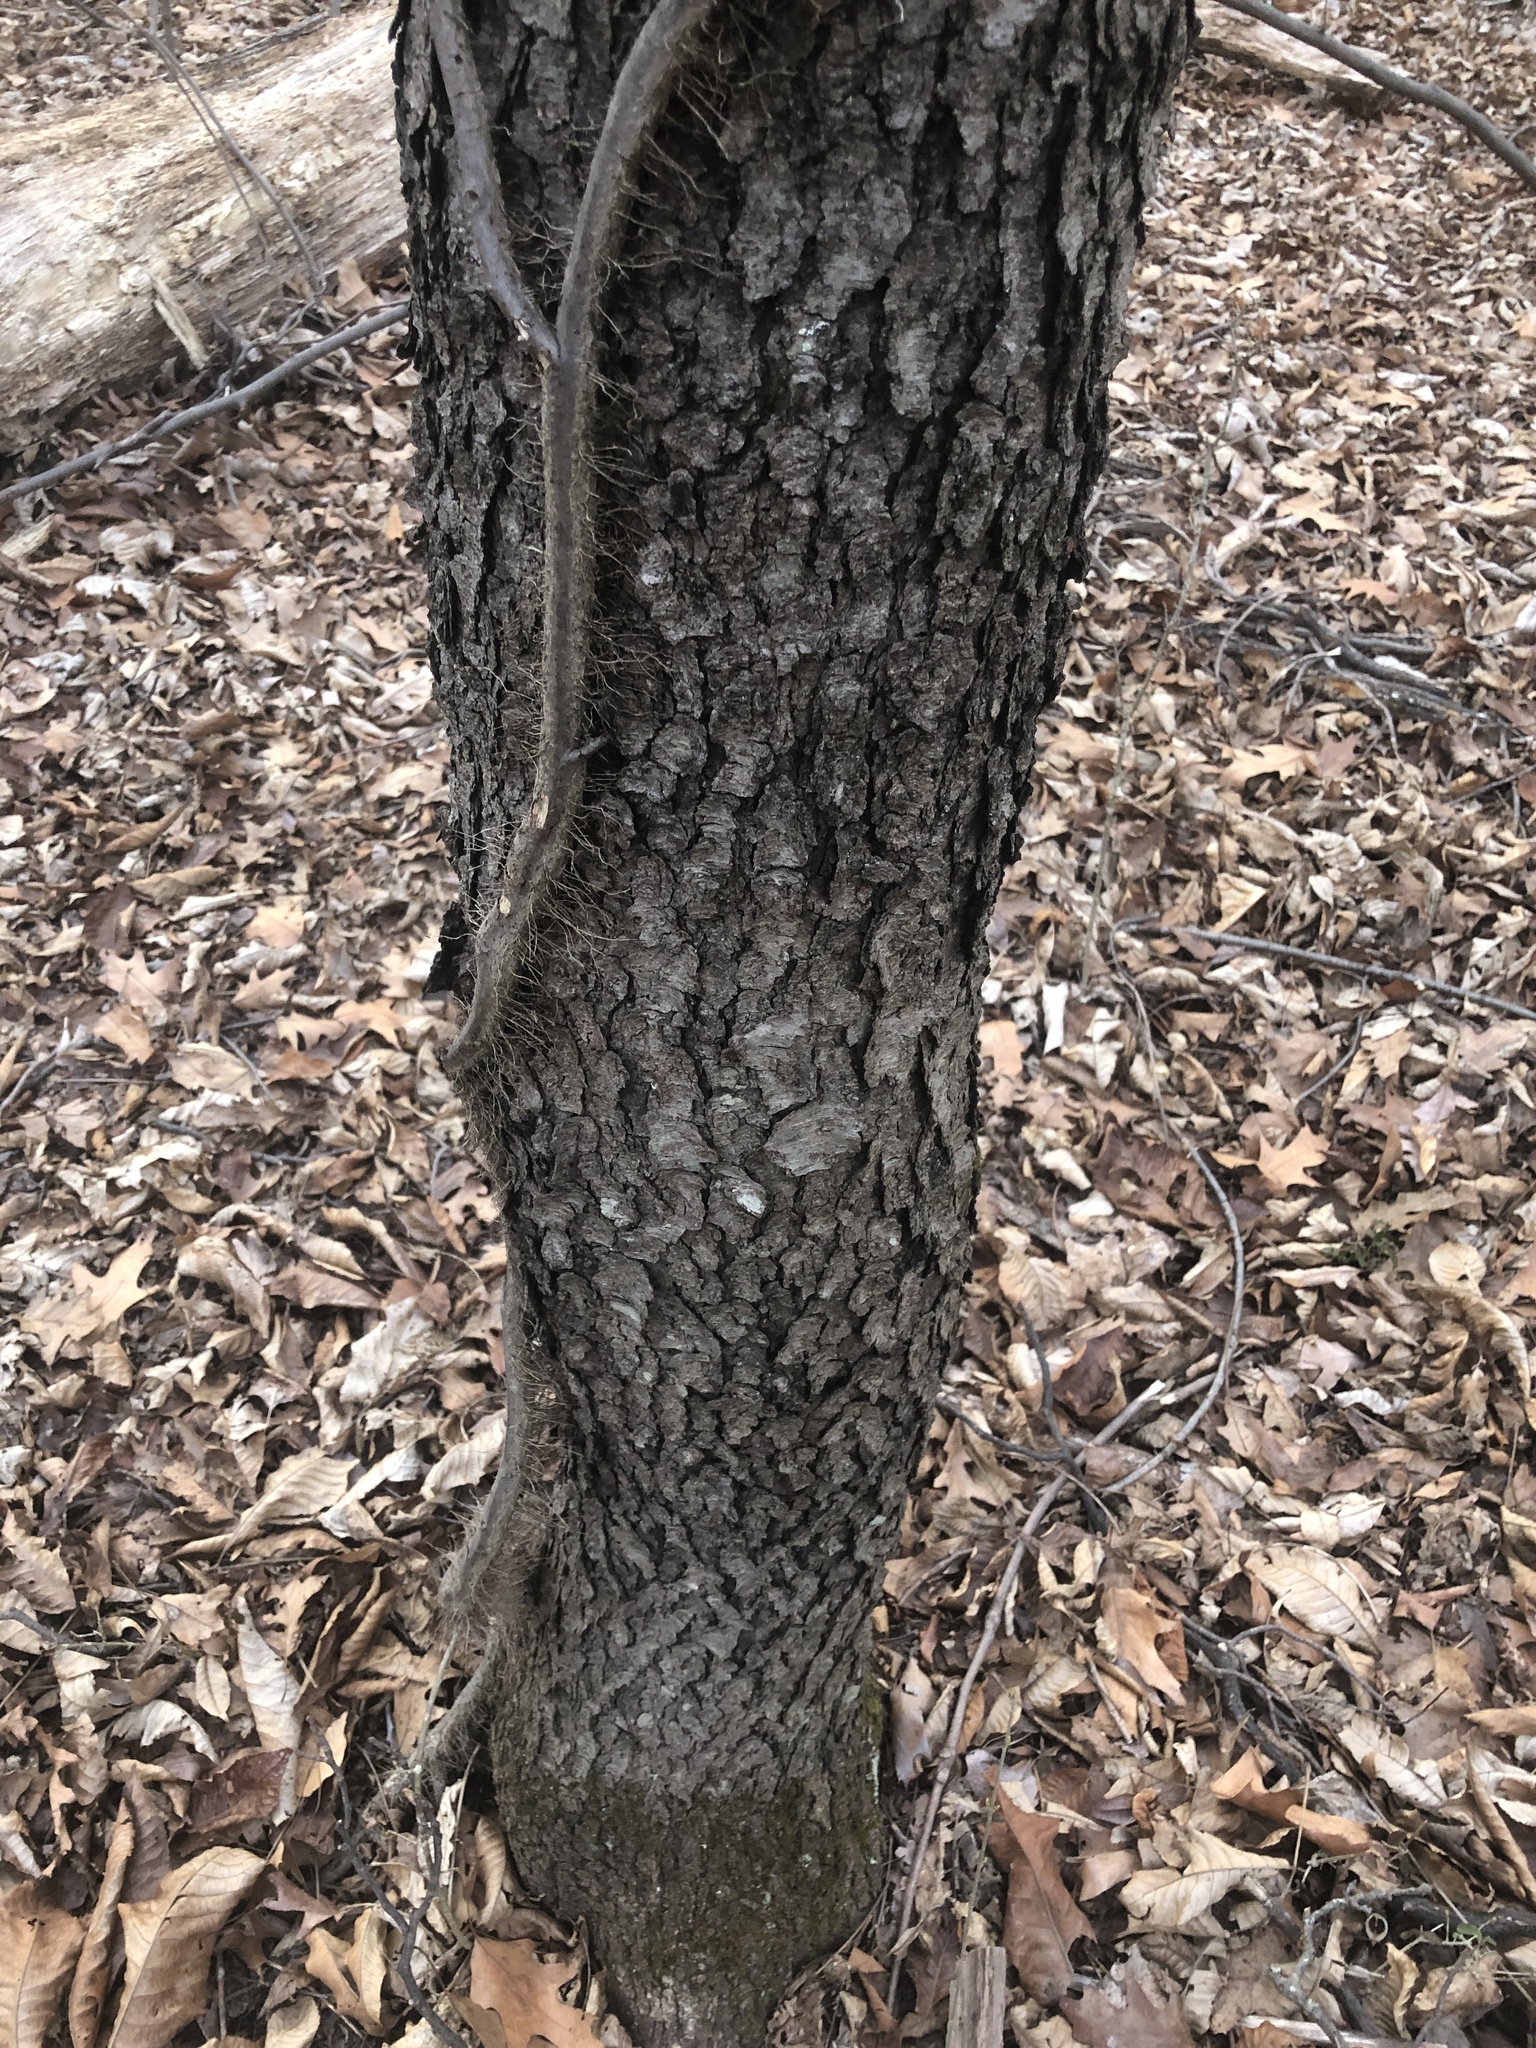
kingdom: Plantae
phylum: Tracheophyta
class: Magnoliopsida
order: Rosales
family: Rosaceae
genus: Prunus
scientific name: Prunus serotina
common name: Black cherry
